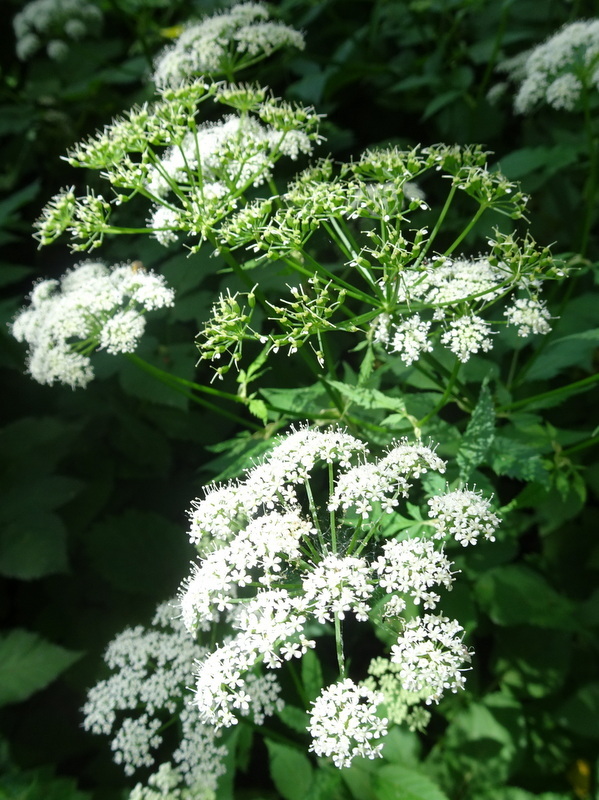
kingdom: Plantae
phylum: Tracheophyta
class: Magnoliopsida
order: Apiales
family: Apiaceae
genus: Aegopodium
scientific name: Aegopodium podagraria
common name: Ground-elder
